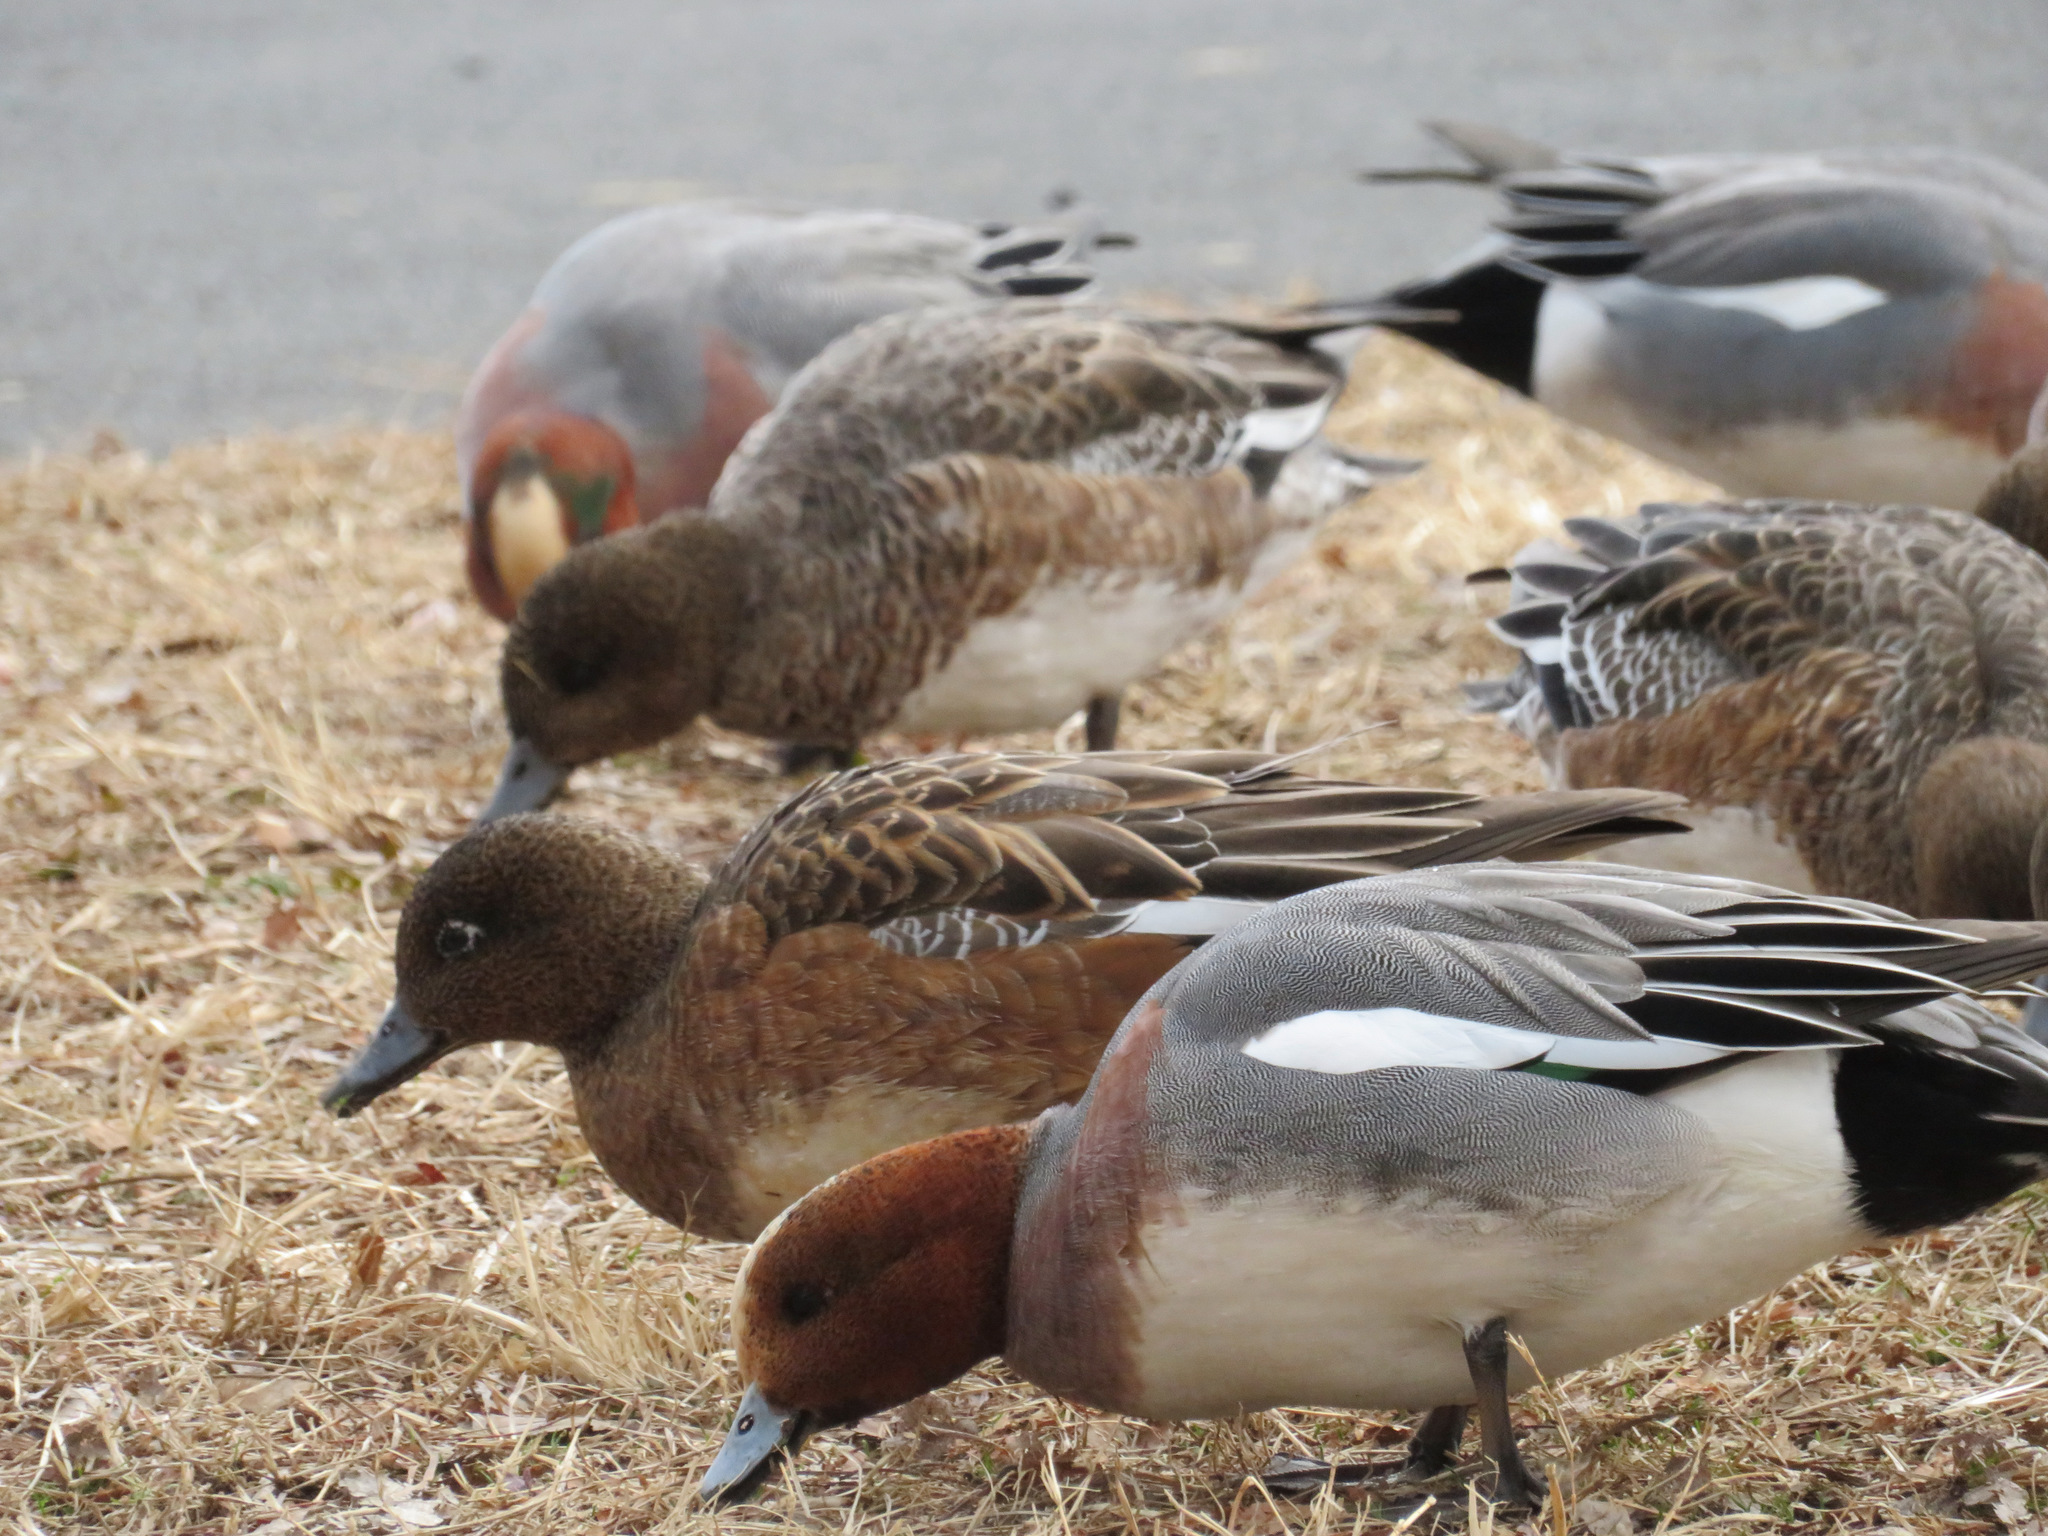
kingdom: Animalia
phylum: Chordata
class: Aves
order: Anseriformes
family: Anatidae
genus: Mareca
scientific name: Mareca penelope
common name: Eurasian wigeon
